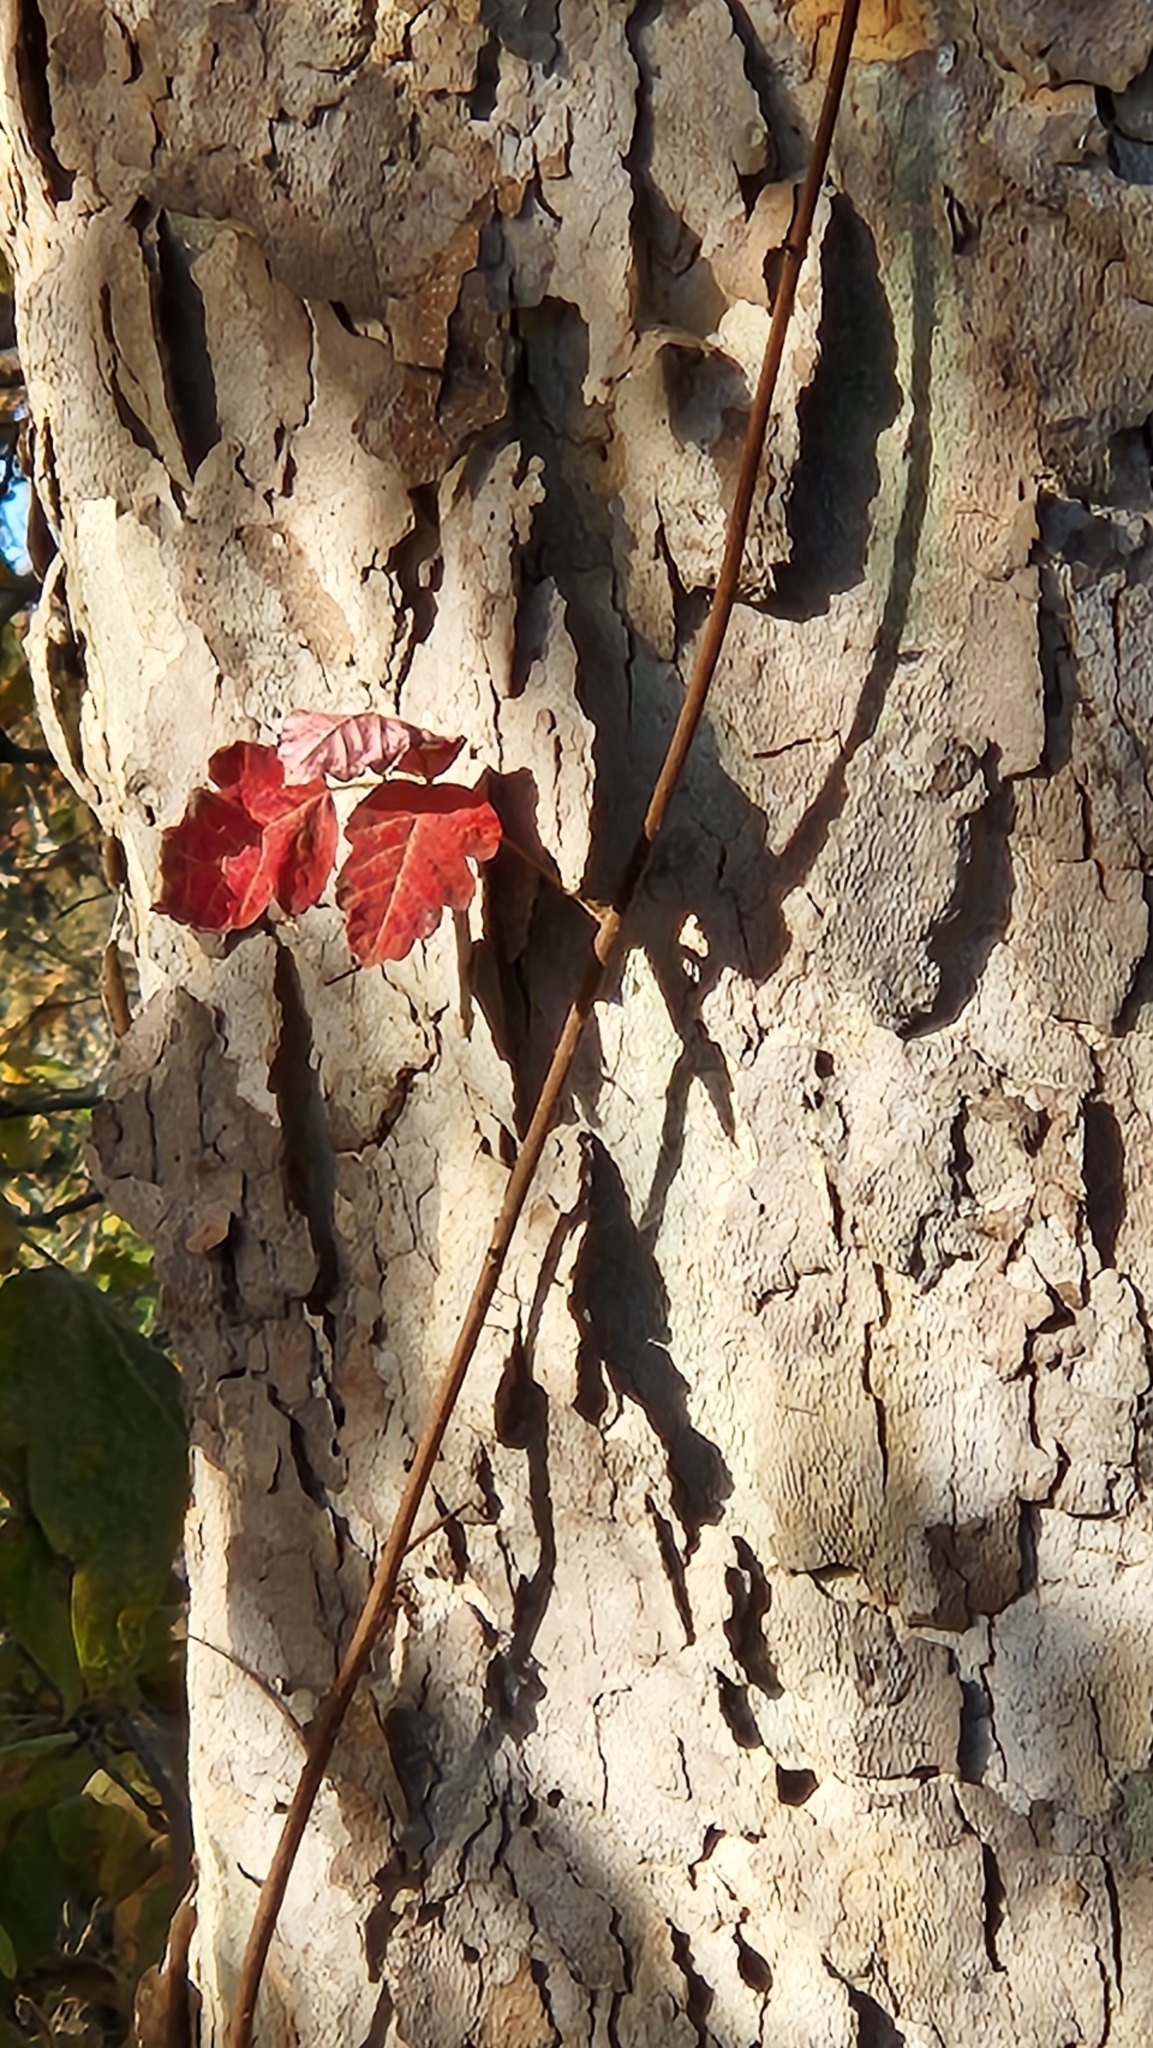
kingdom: Plantae
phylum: Tracheophyta
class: Magnoliopsida
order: Sapindales
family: Anacardiaceae
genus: Toxicodendron
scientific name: Toxicodendron diversilobum
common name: Pacific poison-oak
